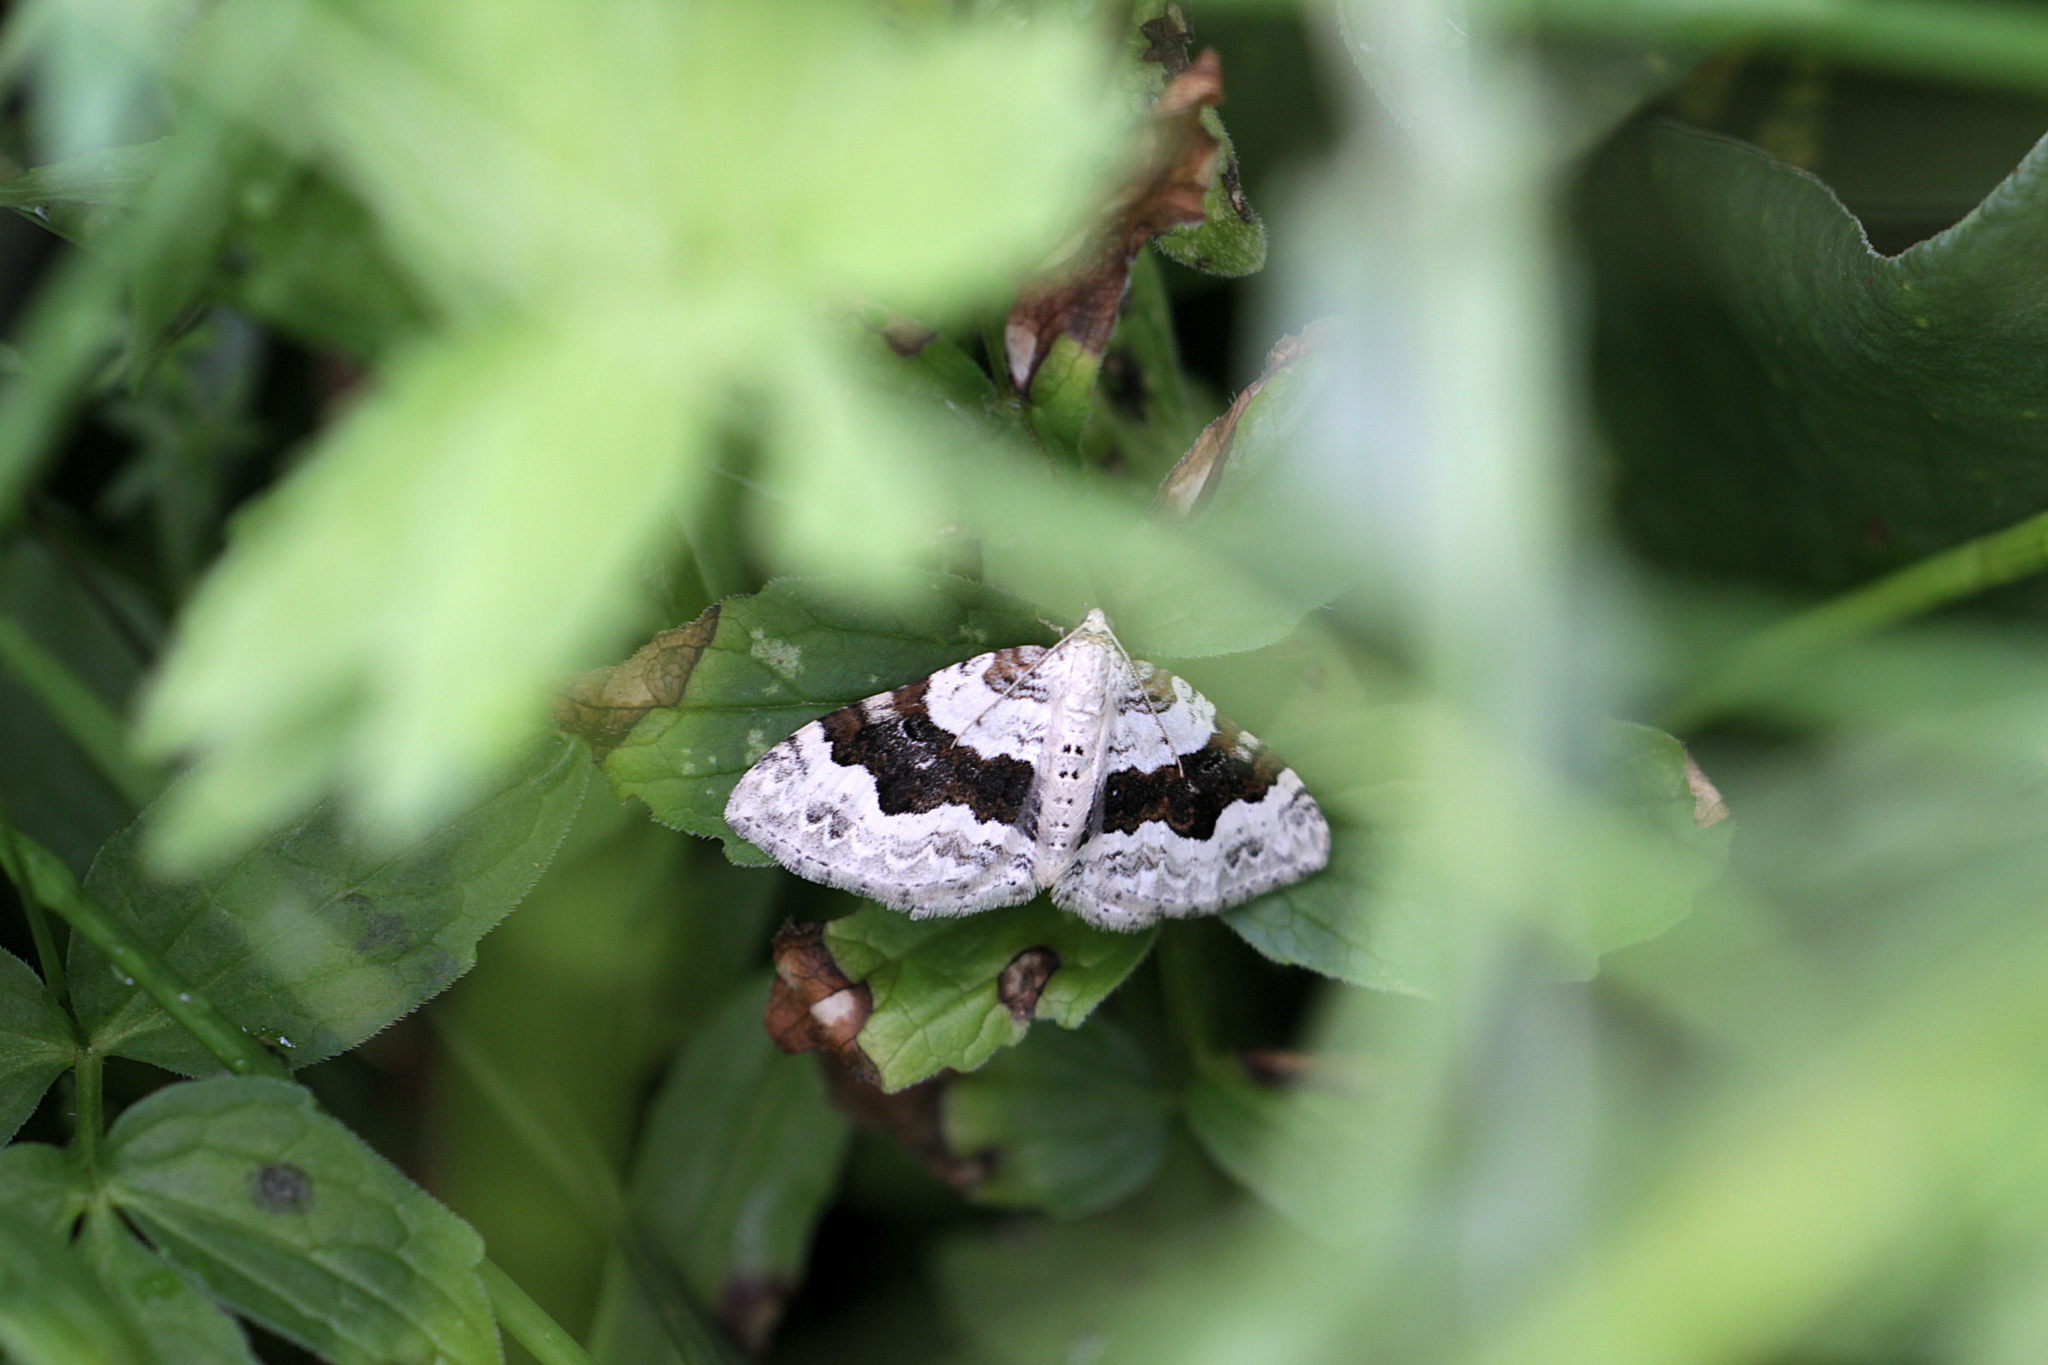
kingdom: Animalia
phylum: Arthropoda
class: Insecta
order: Lepidoptera
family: Geometridae
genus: Xanthorhoe
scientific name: Xanthorhoe montanata
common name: Silver-ground carpet
